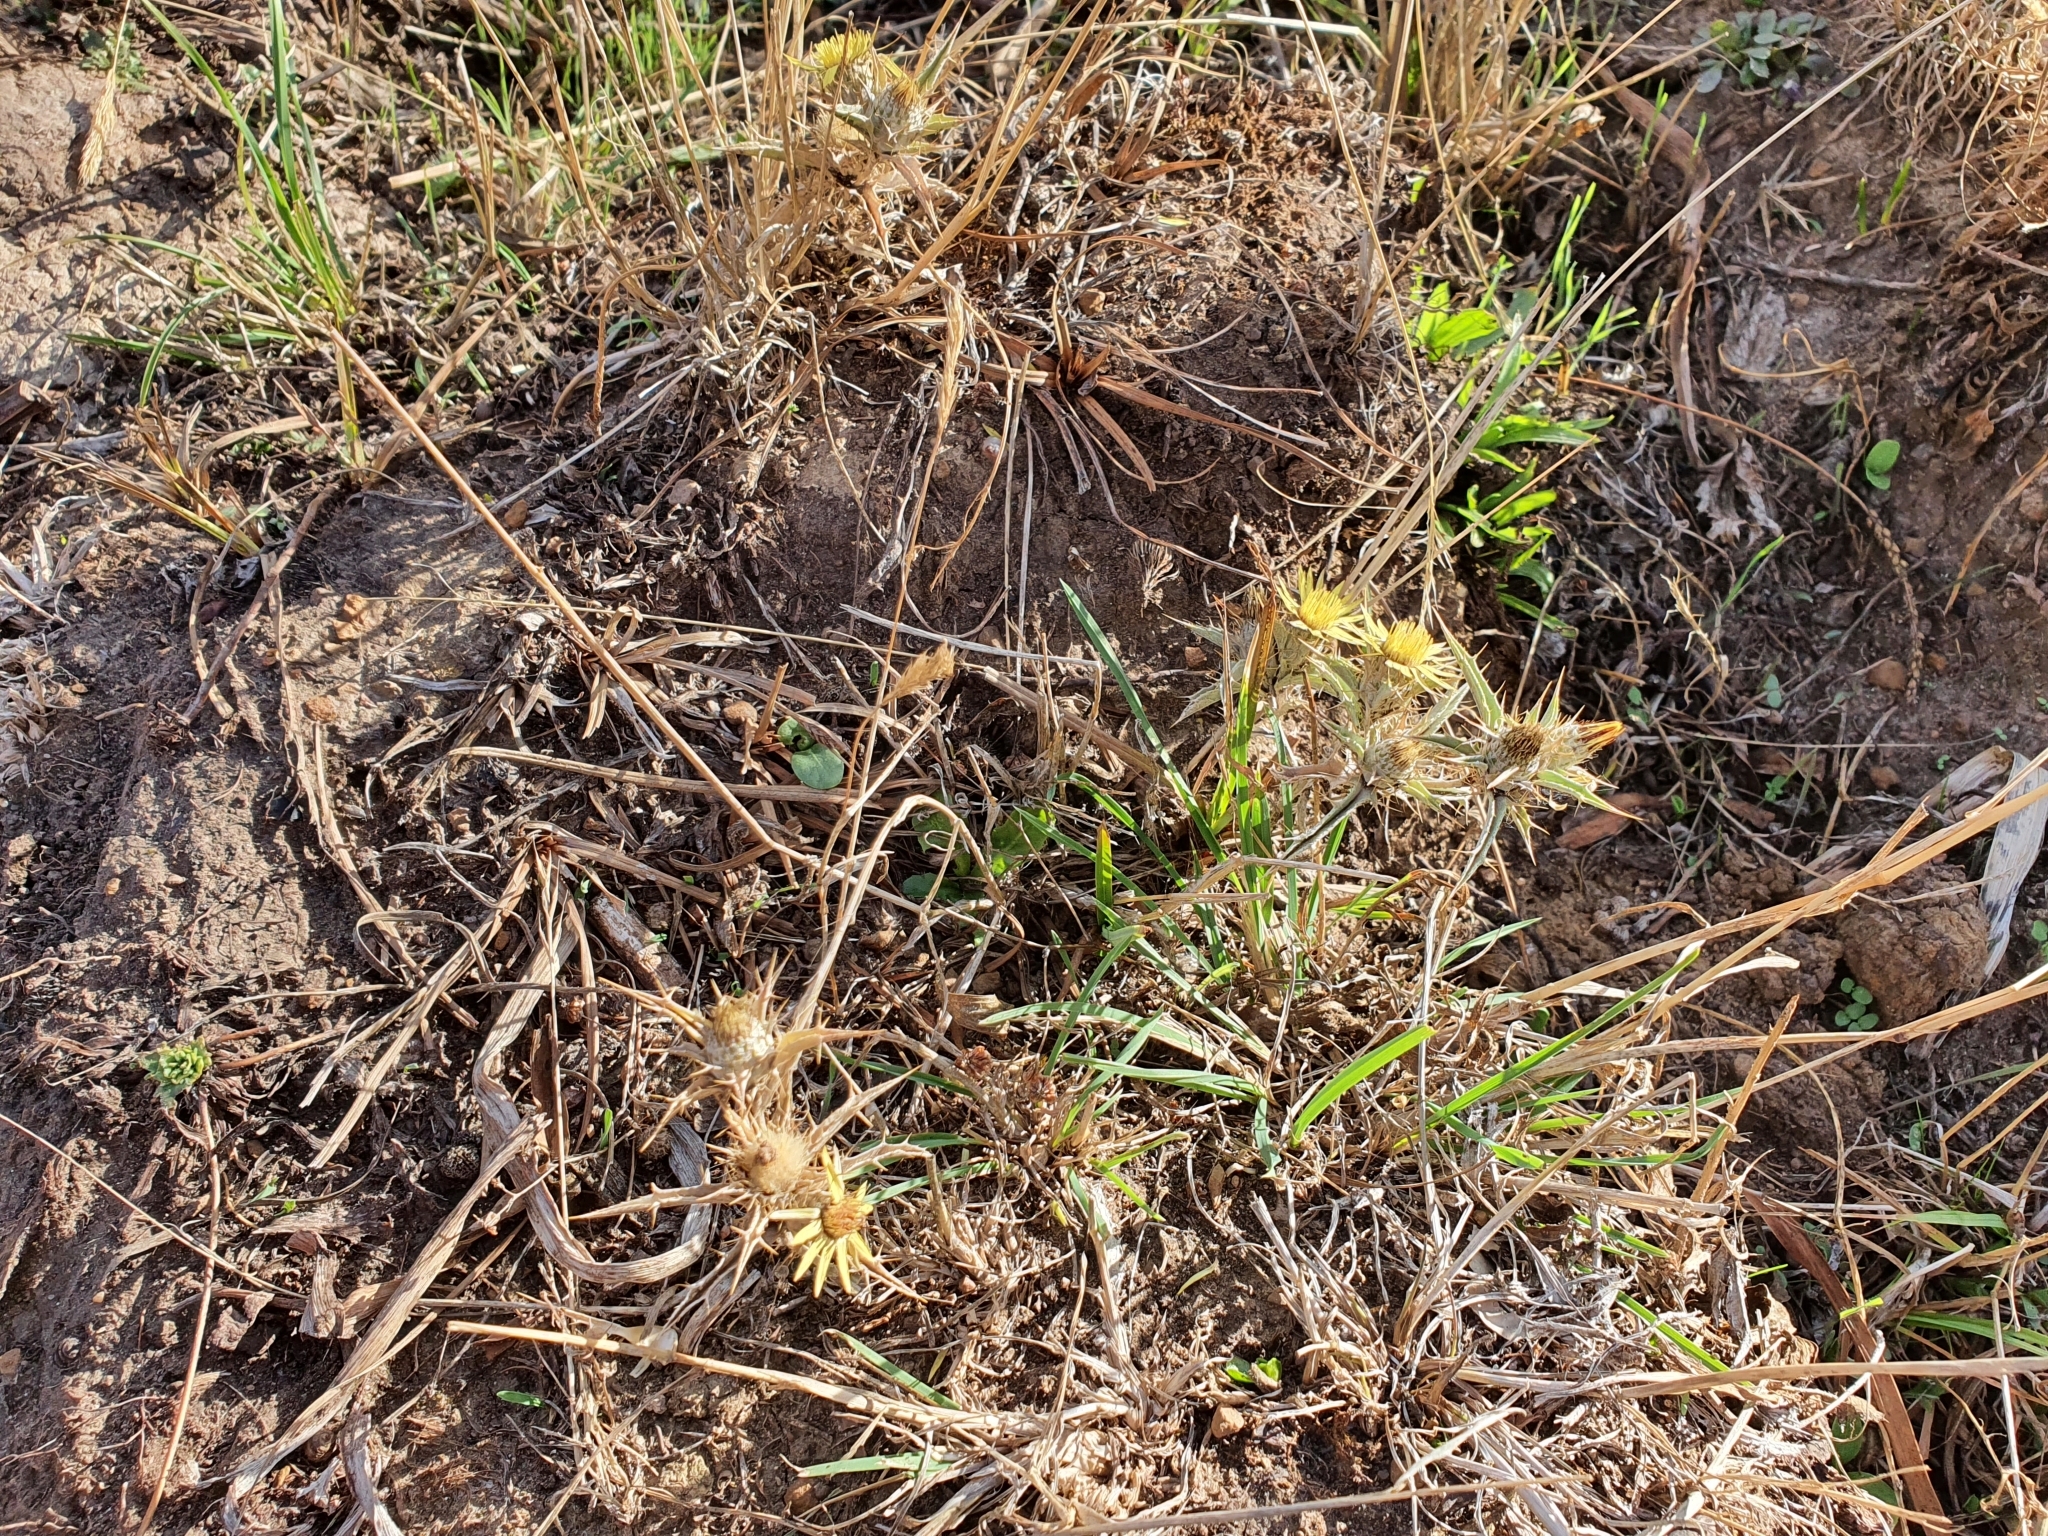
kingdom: Plantae
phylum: Tracheophyta
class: Magnoliopsida
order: Asterales
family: Asteraceae
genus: Carlina
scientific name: Carlina racemosa
